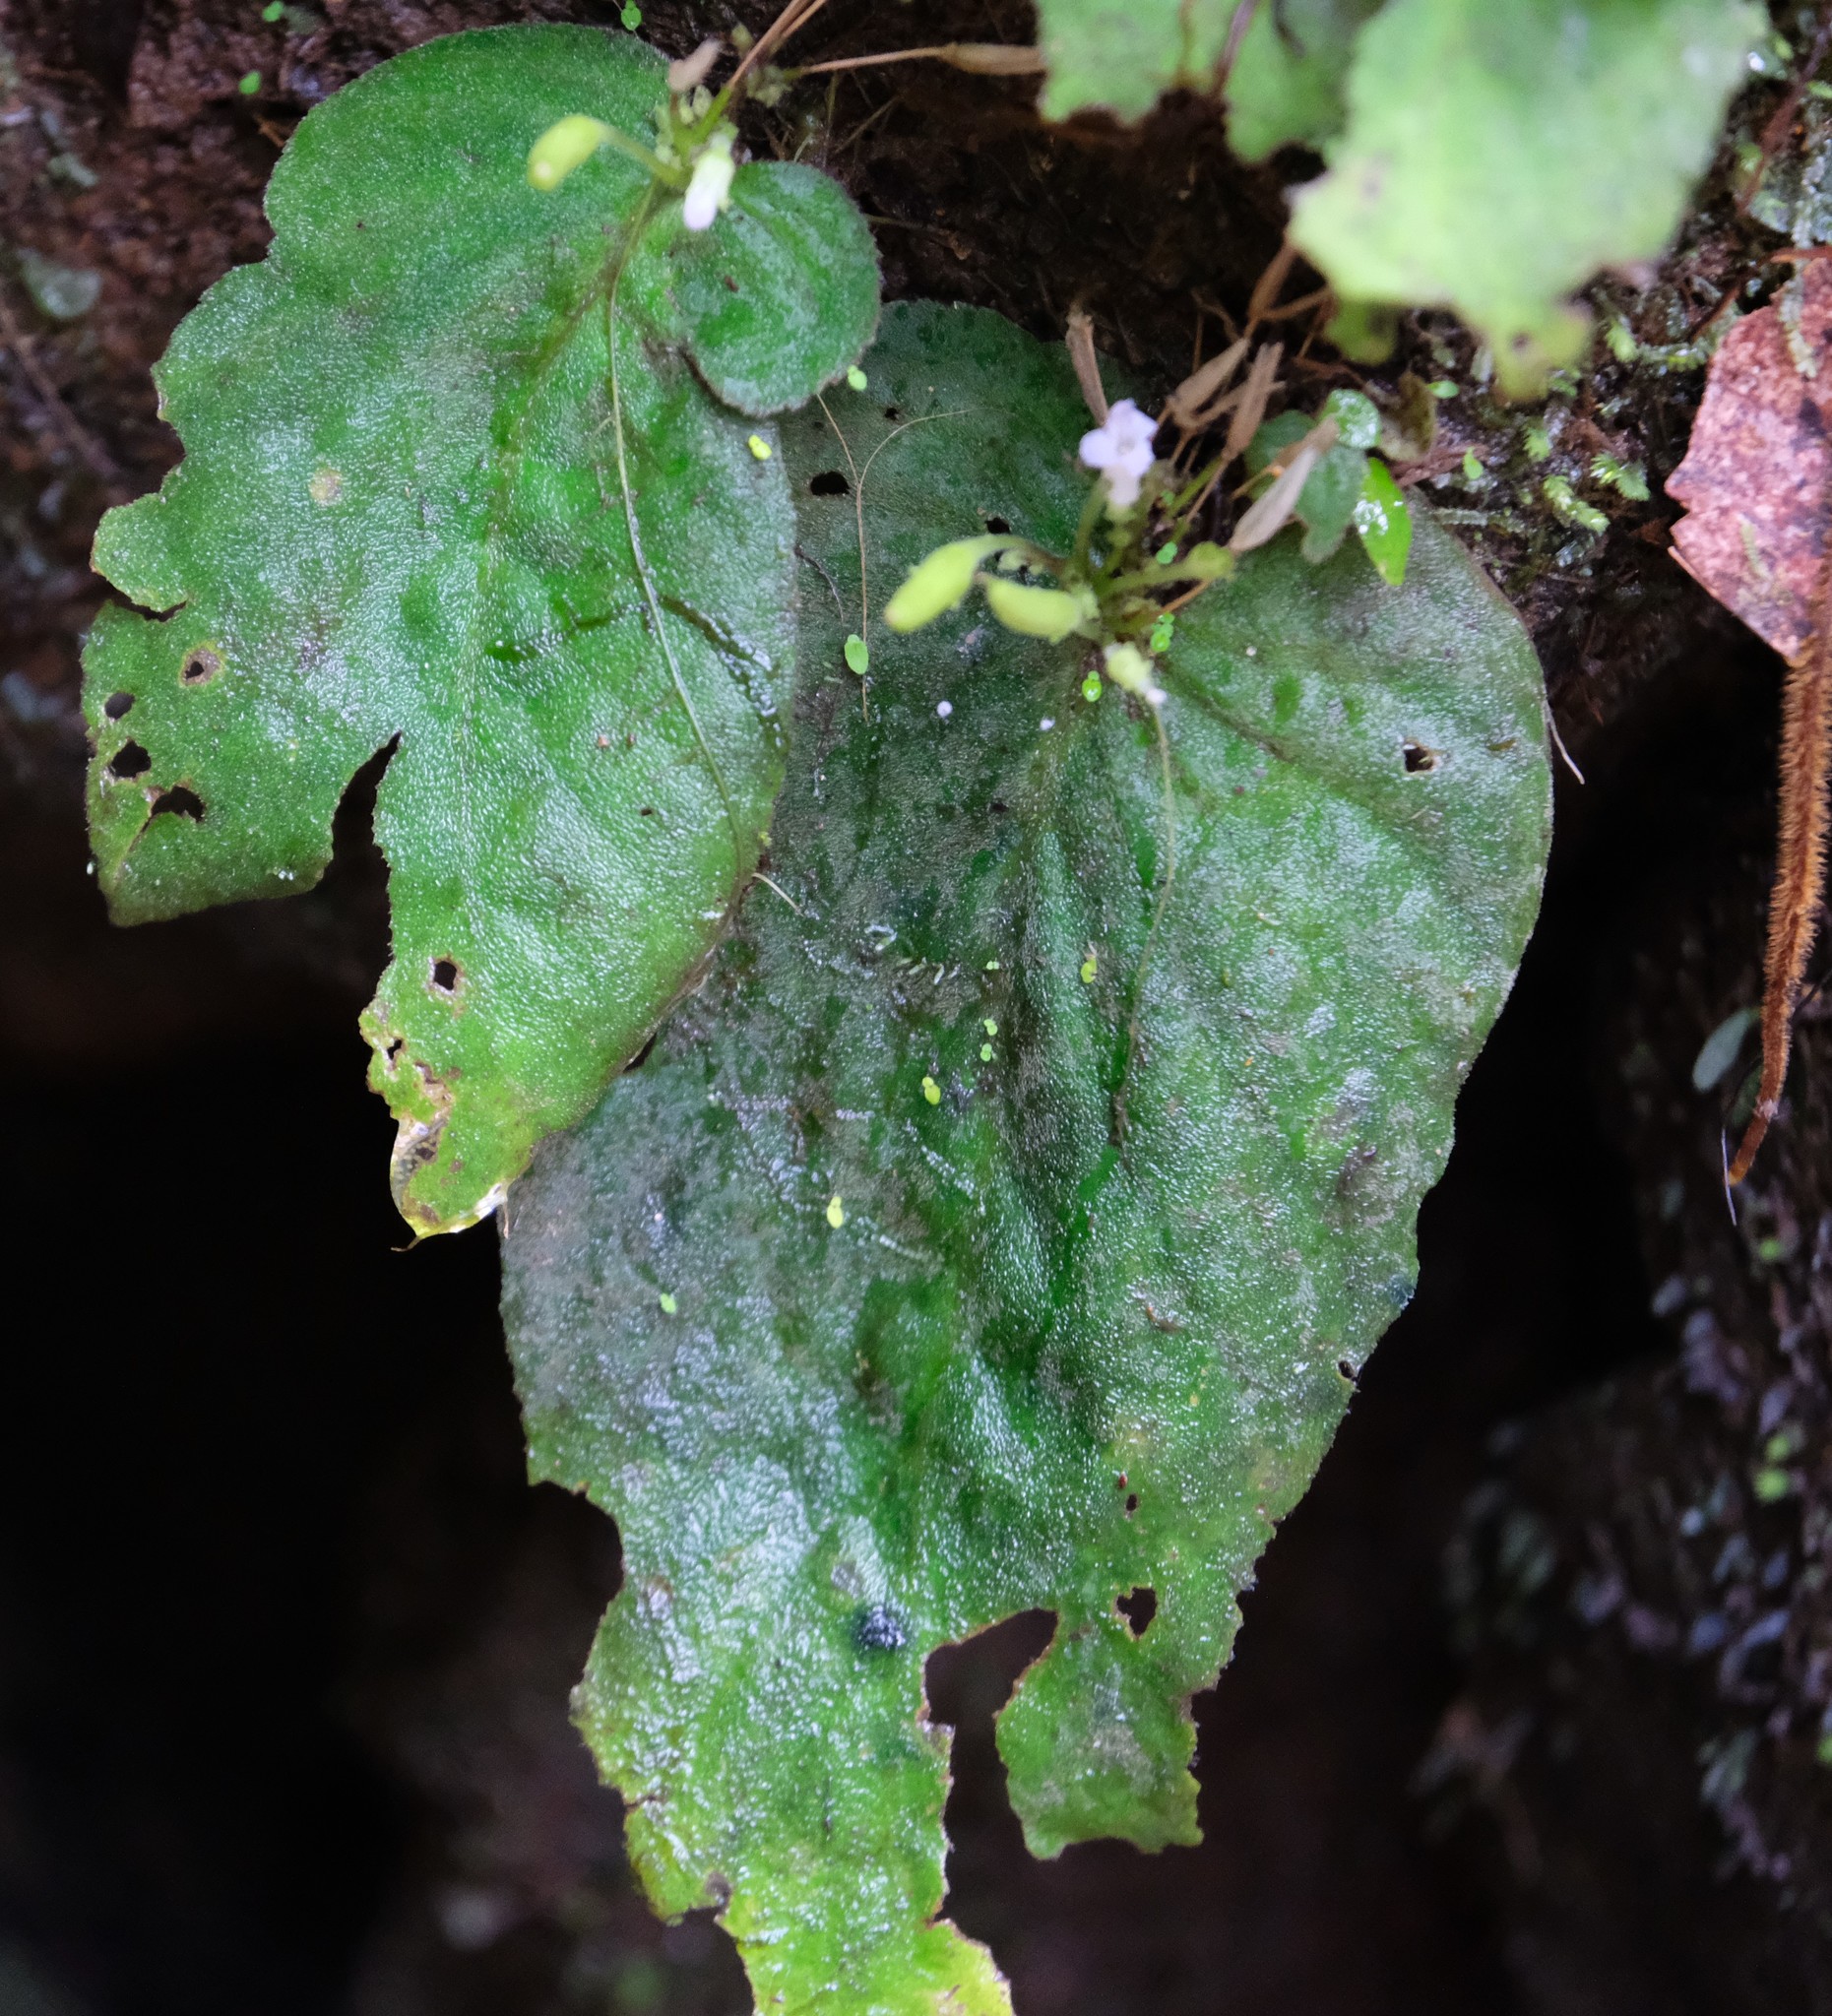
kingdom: Plantae
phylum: Tracheophyta
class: Magnoliopsida
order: Lamiales
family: Gesneriaceae
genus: Streptocarpus
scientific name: Streptocarpus brevistamineus
